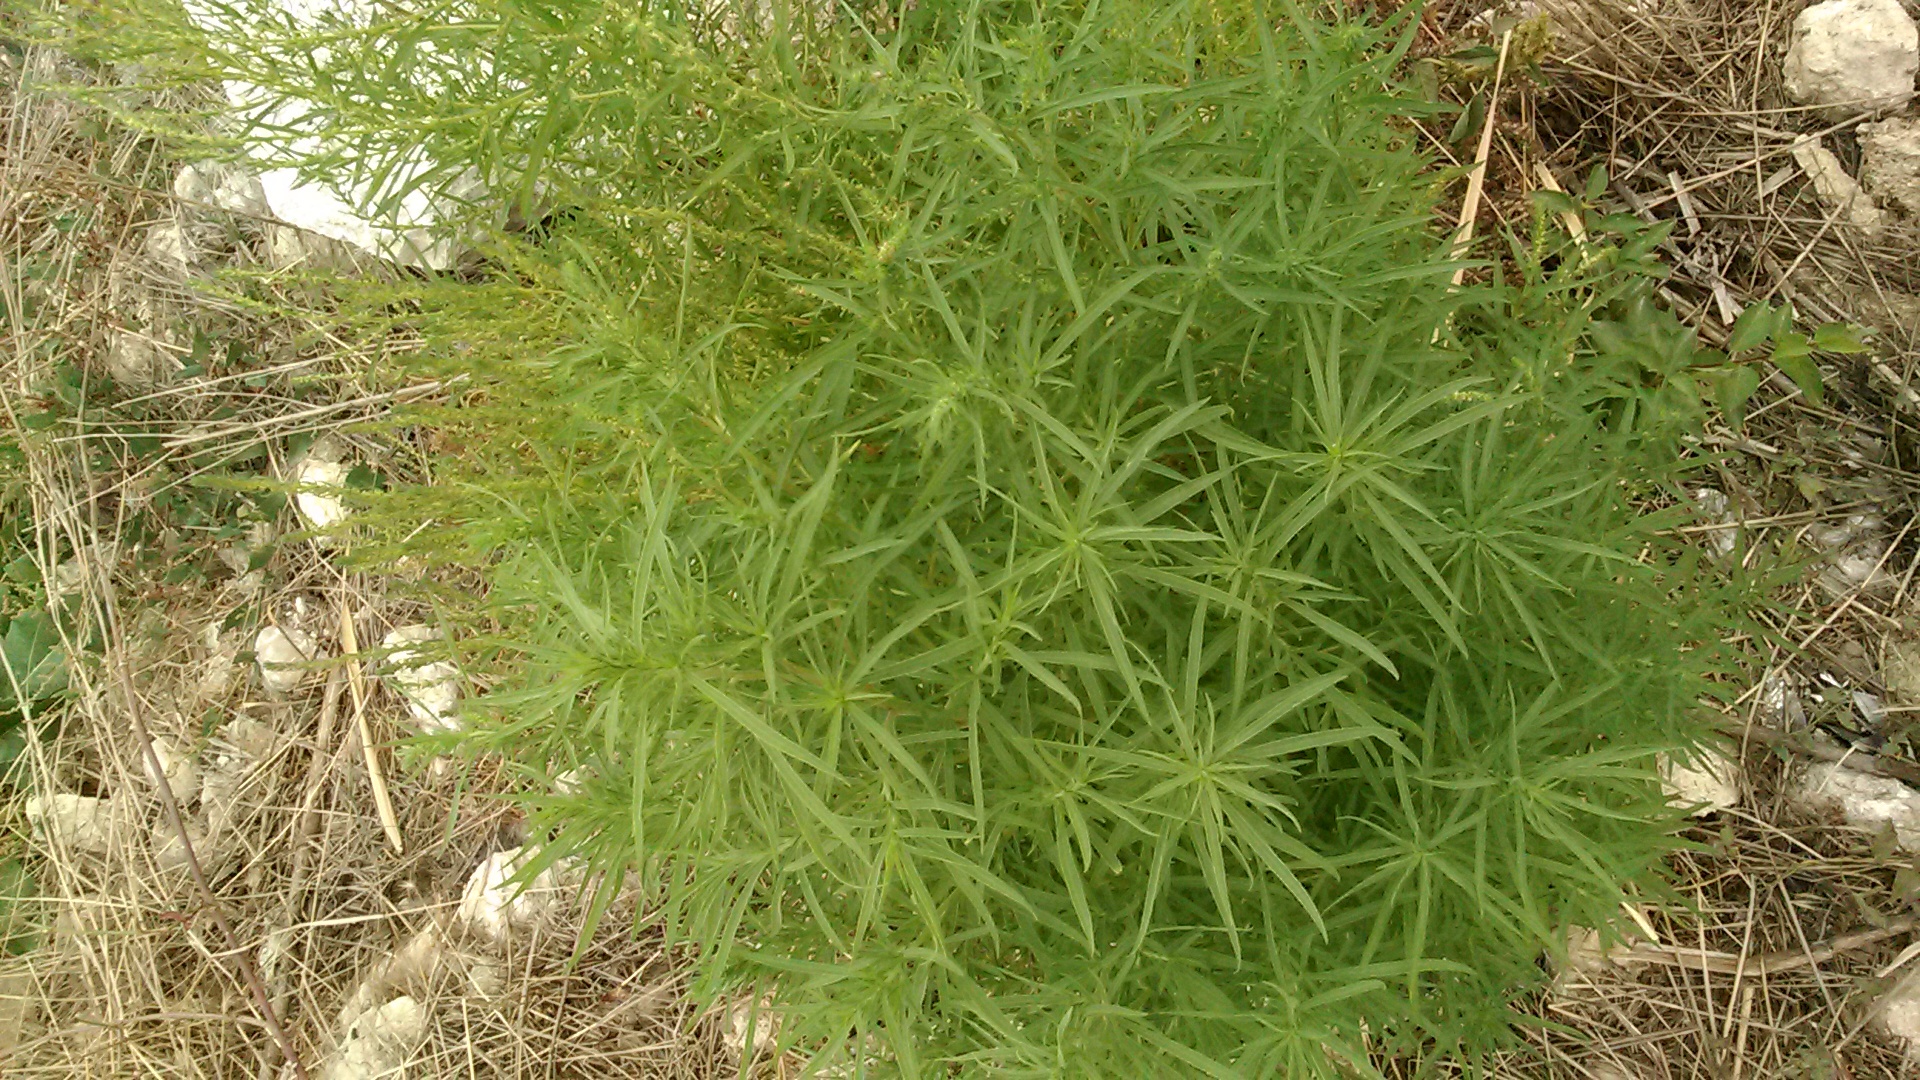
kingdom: Plantae
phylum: Tracheophyta
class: Magnoliopsida
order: Caryophyllales
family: Amaranthaceae
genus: Bassia
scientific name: Bassia scoparia
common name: Belvedere
